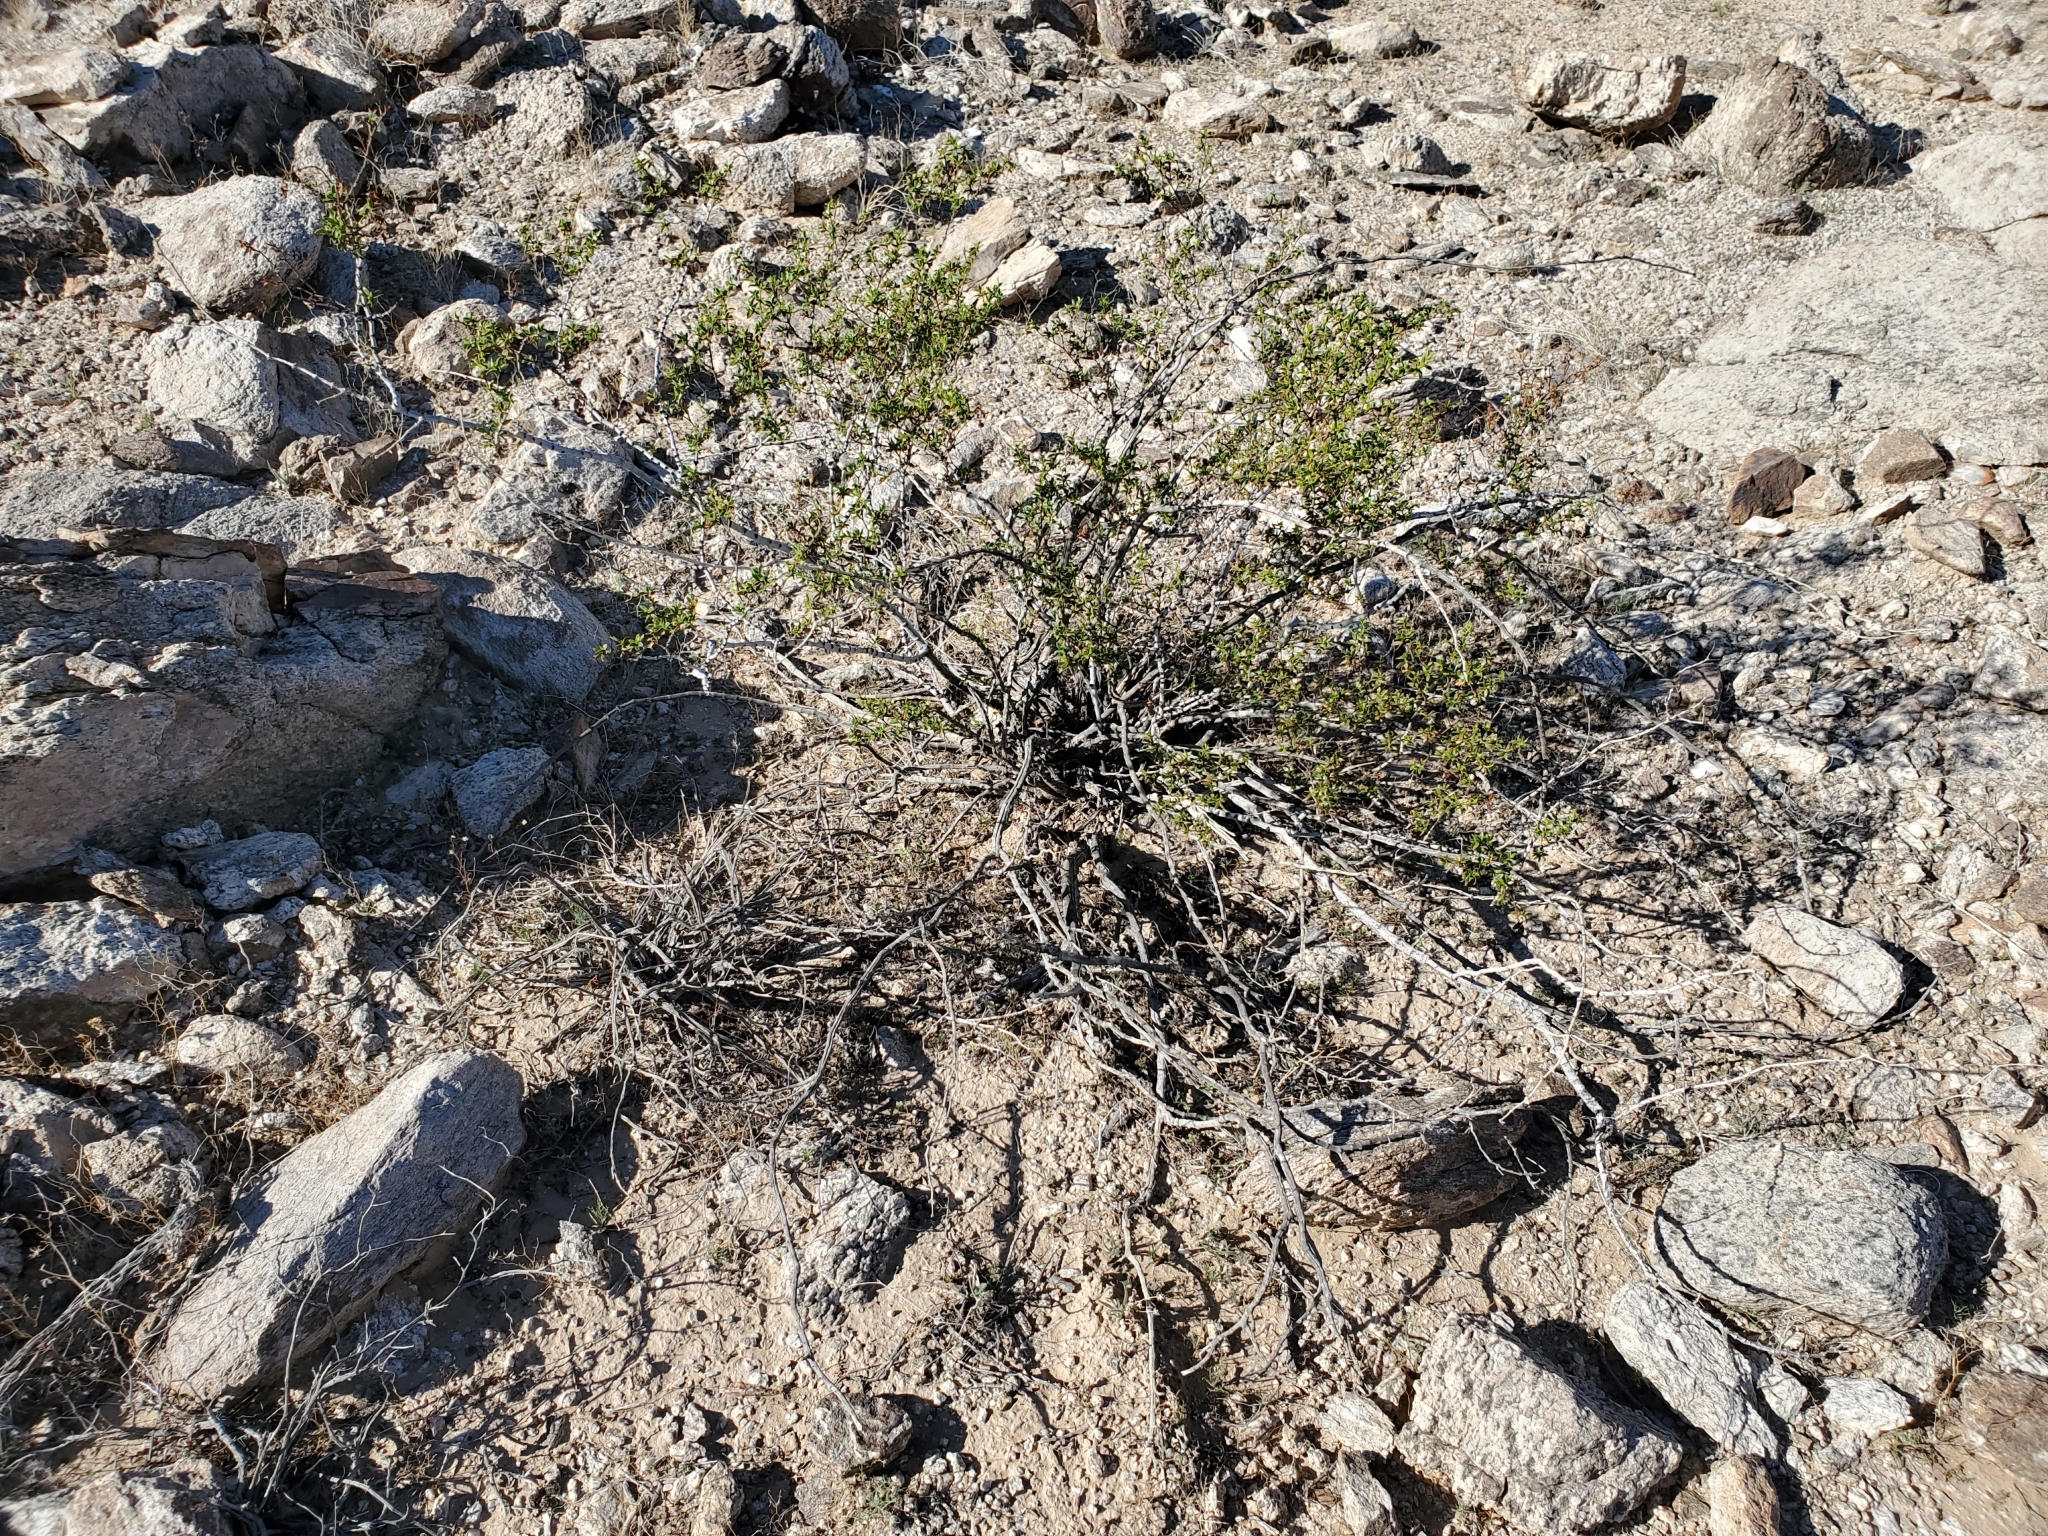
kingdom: Plantae
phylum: Tracheophyta
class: Magnoliopsida
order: Zygophyllales
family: Zygophyllaceae
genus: Larrea
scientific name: Larrea tridentata
